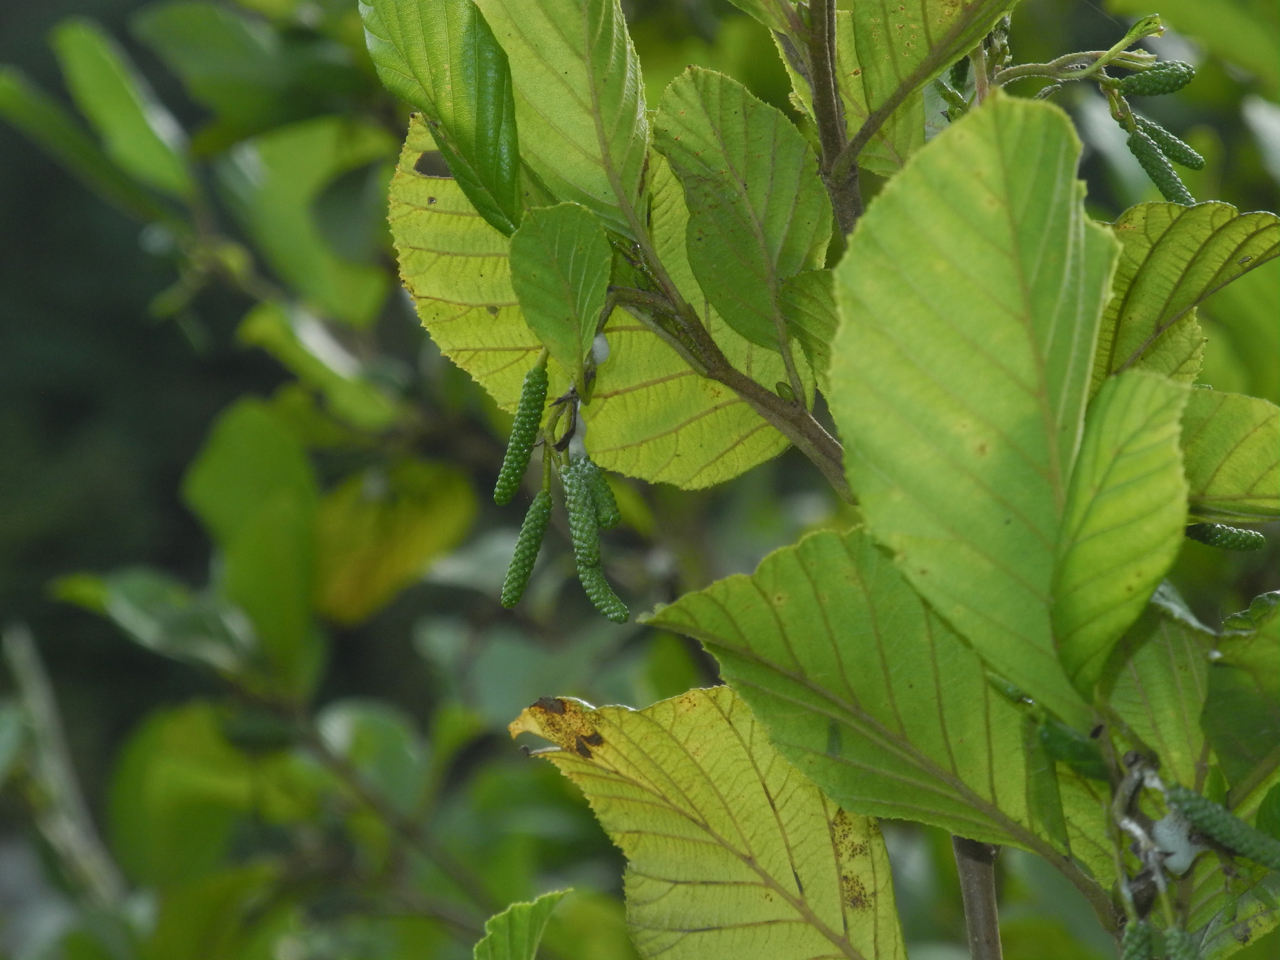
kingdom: Plantae
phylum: Tracheophyta
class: Magnoliopsida
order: Fagales
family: Betulaceae
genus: Alnus
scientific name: Alnus serrulata
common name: Hazel alder
